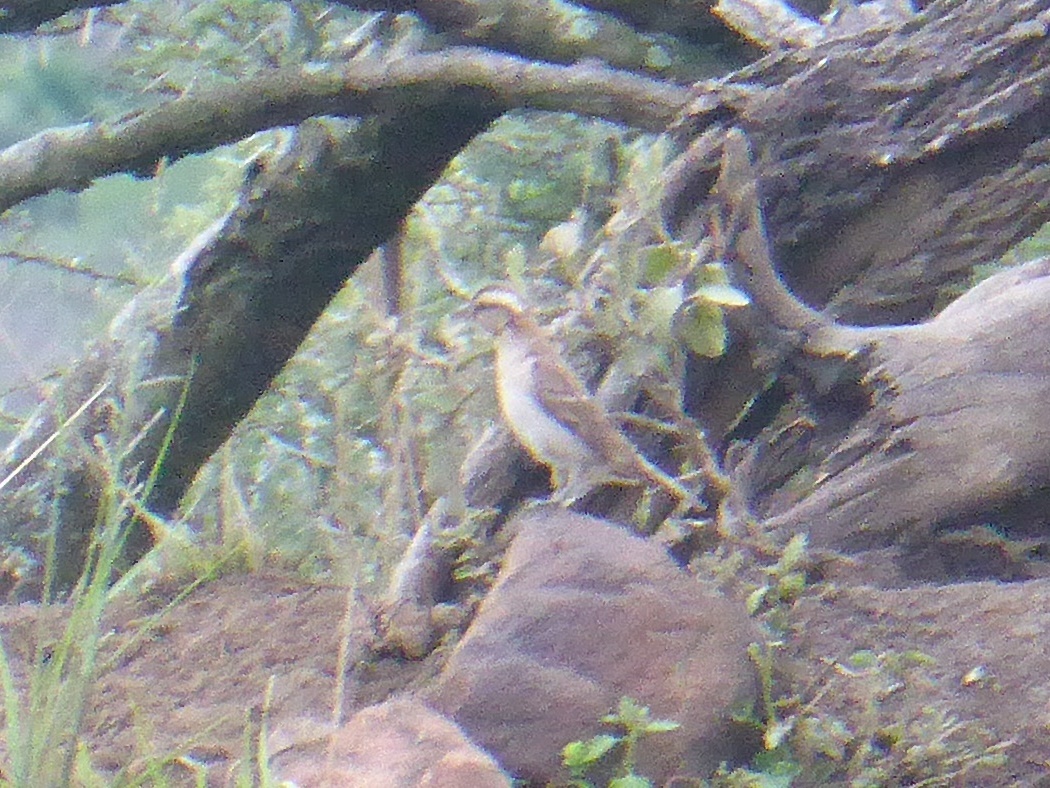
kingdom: Animalia
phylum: Chordata
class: Aves
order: Passeriformes
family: Passeridae
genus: Gymnoris
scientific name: Gymnoris superciliaris
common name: Yellow-throated petronia
